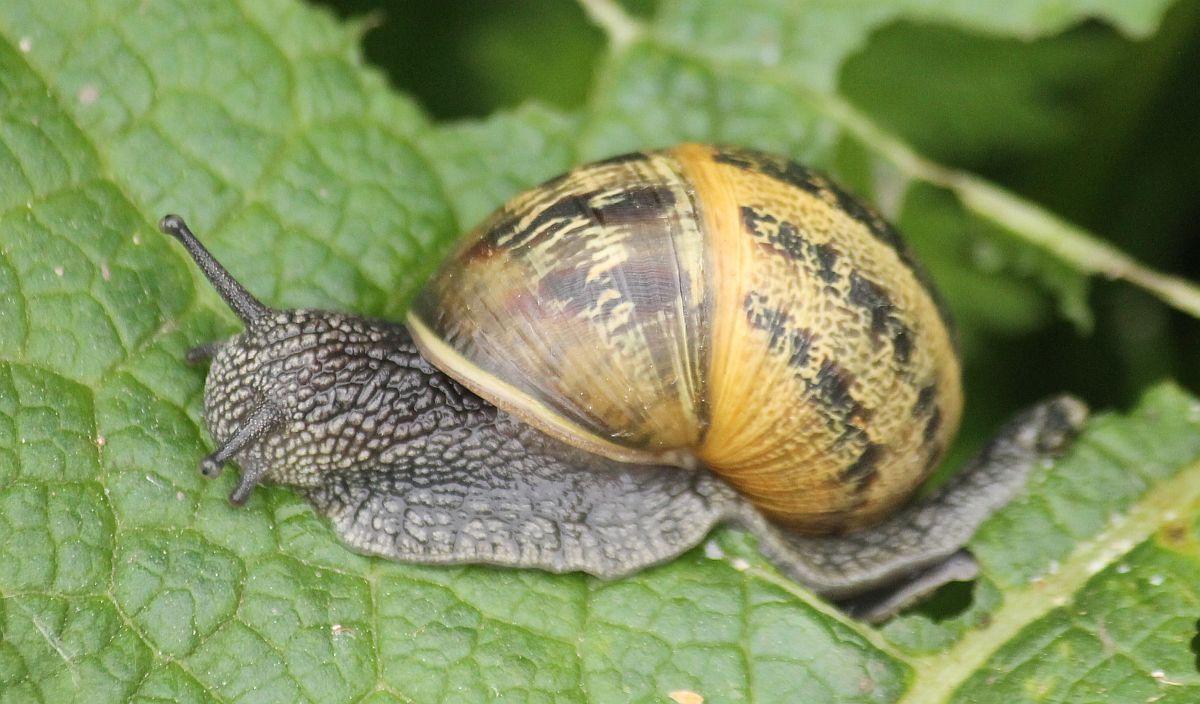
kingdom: Animalia
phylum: Mollusca
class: Gastropoda
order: Stylommatophora
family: Helicidae
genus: Cornu
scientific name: Cornu aspersum
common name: Brown garden snail
